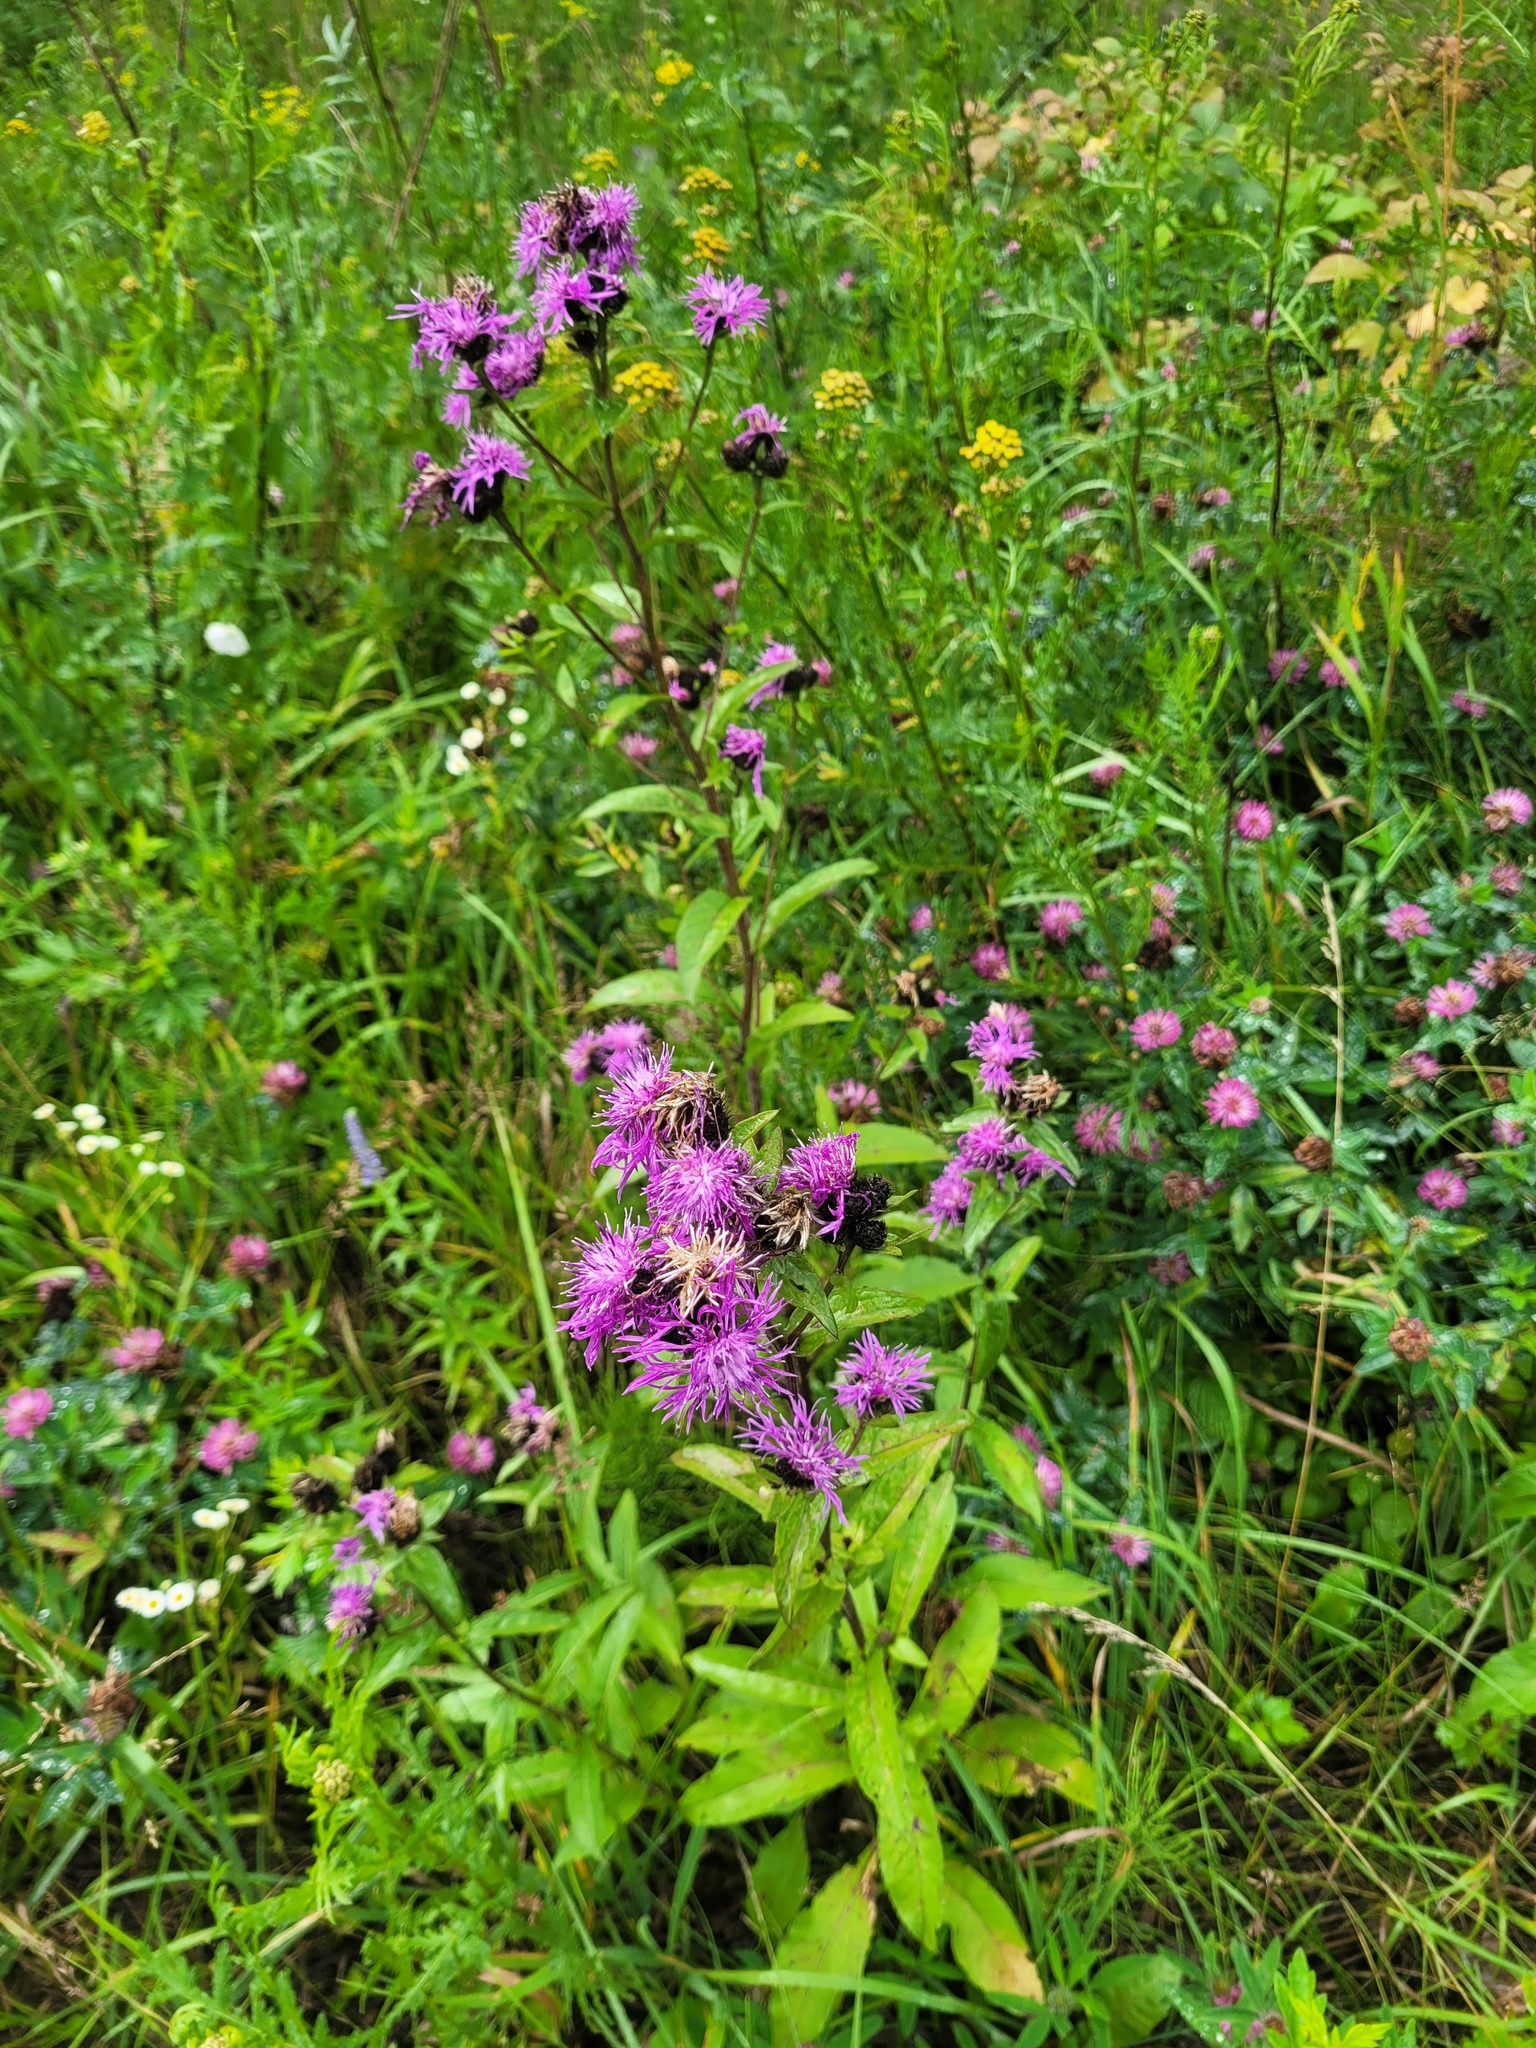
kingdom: Plantae
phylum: Tracheophyta
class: Magnoliopsida
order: Asterales
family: Asteraceae
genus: Centaurea
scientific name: Centaurea phrygia
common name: Wig knapweed
